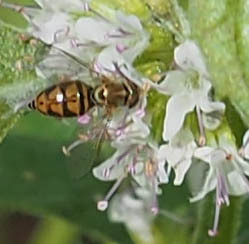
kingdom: Animalia
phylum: Arthropoda
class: Insecta
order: Diptera
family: Syrphidae
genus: Toxomerus
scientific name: Toxomerus marginatus
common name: Syrphid fly
